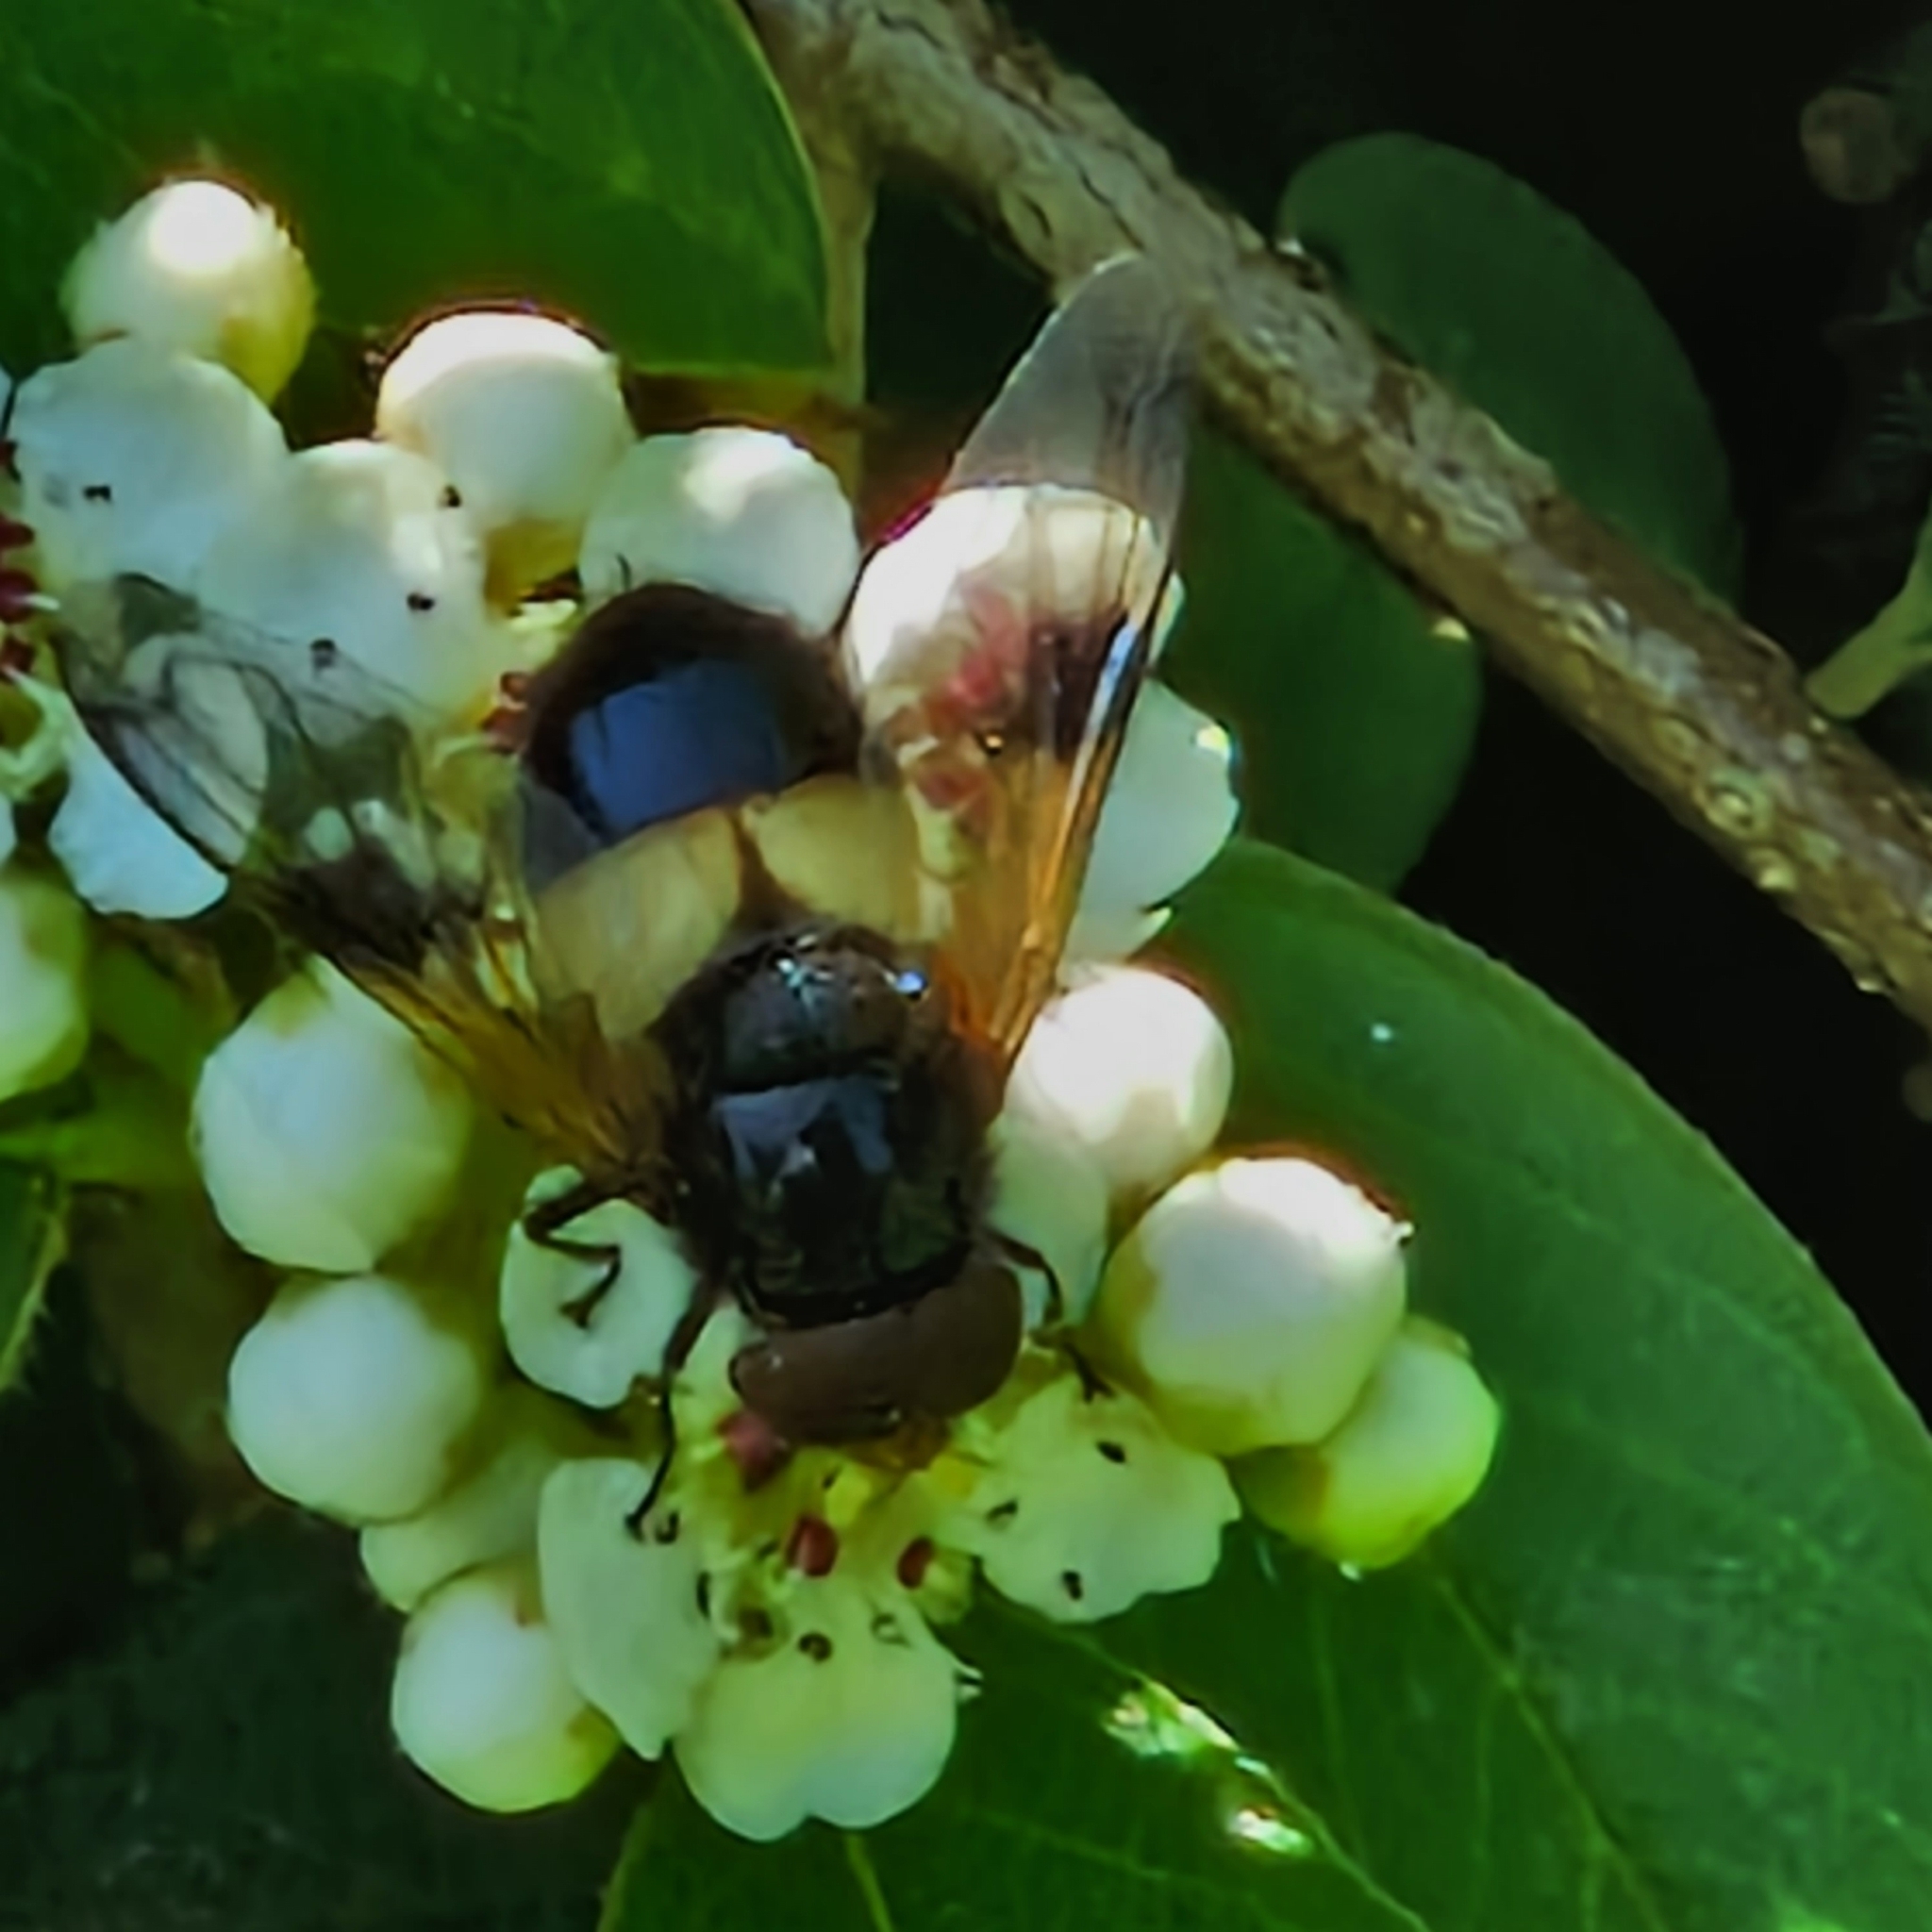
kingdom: Animalia
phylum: Arthropoda
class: Insecta
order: Diptera
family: Syrphidae
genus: Volucella
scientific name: Volucella pellucens
